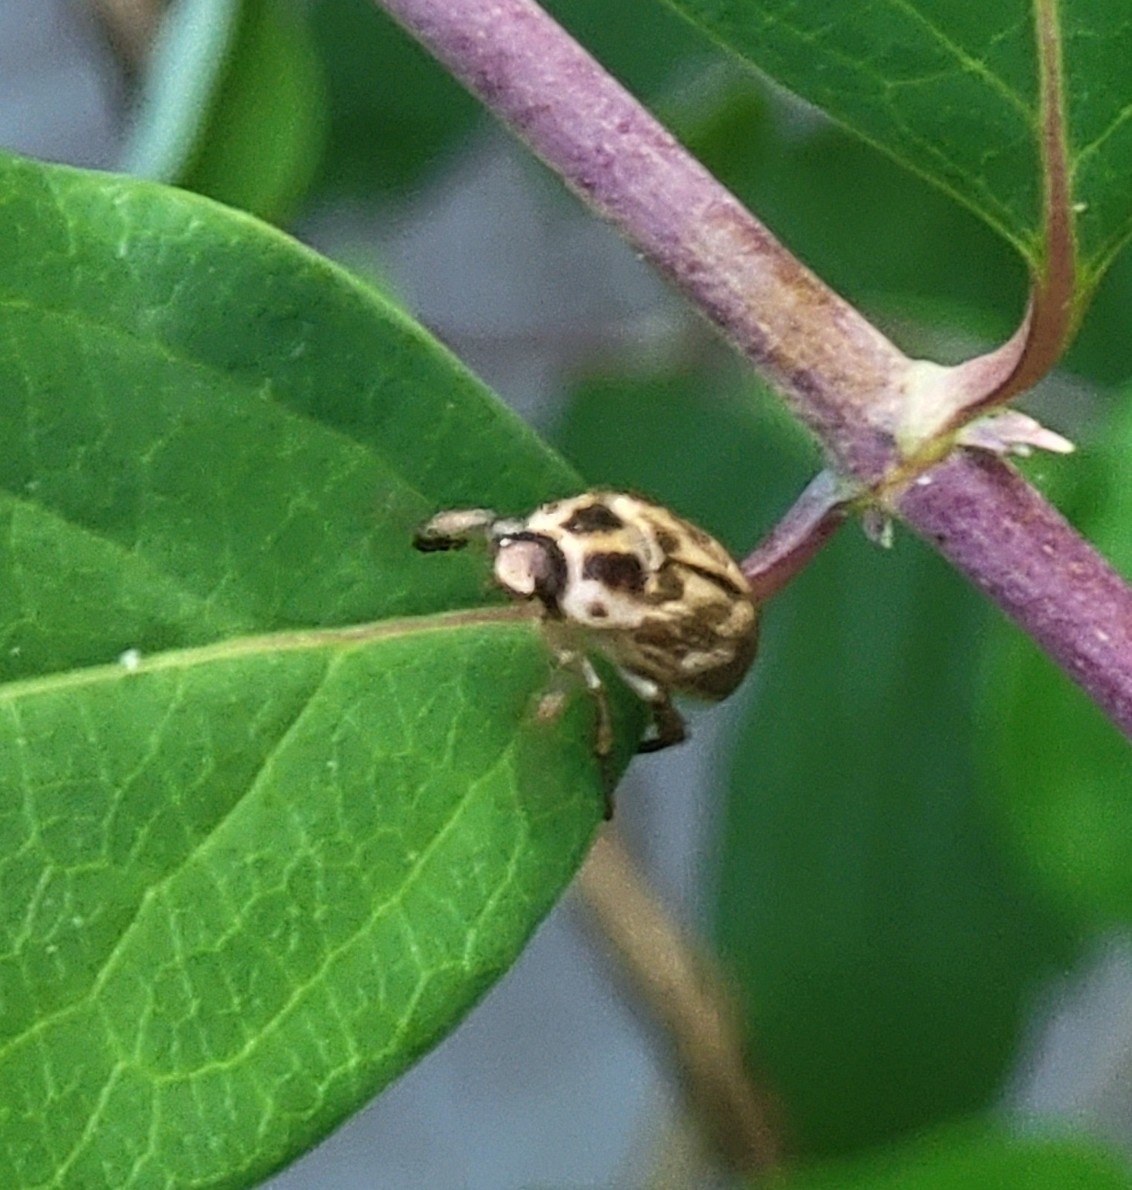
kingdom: Animalia
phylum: Arthropoda
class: Insecta
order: Coleoptera
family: Scarabaeidae
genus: Exomala
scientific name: Exomala orientalis
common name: Oriental beetle
